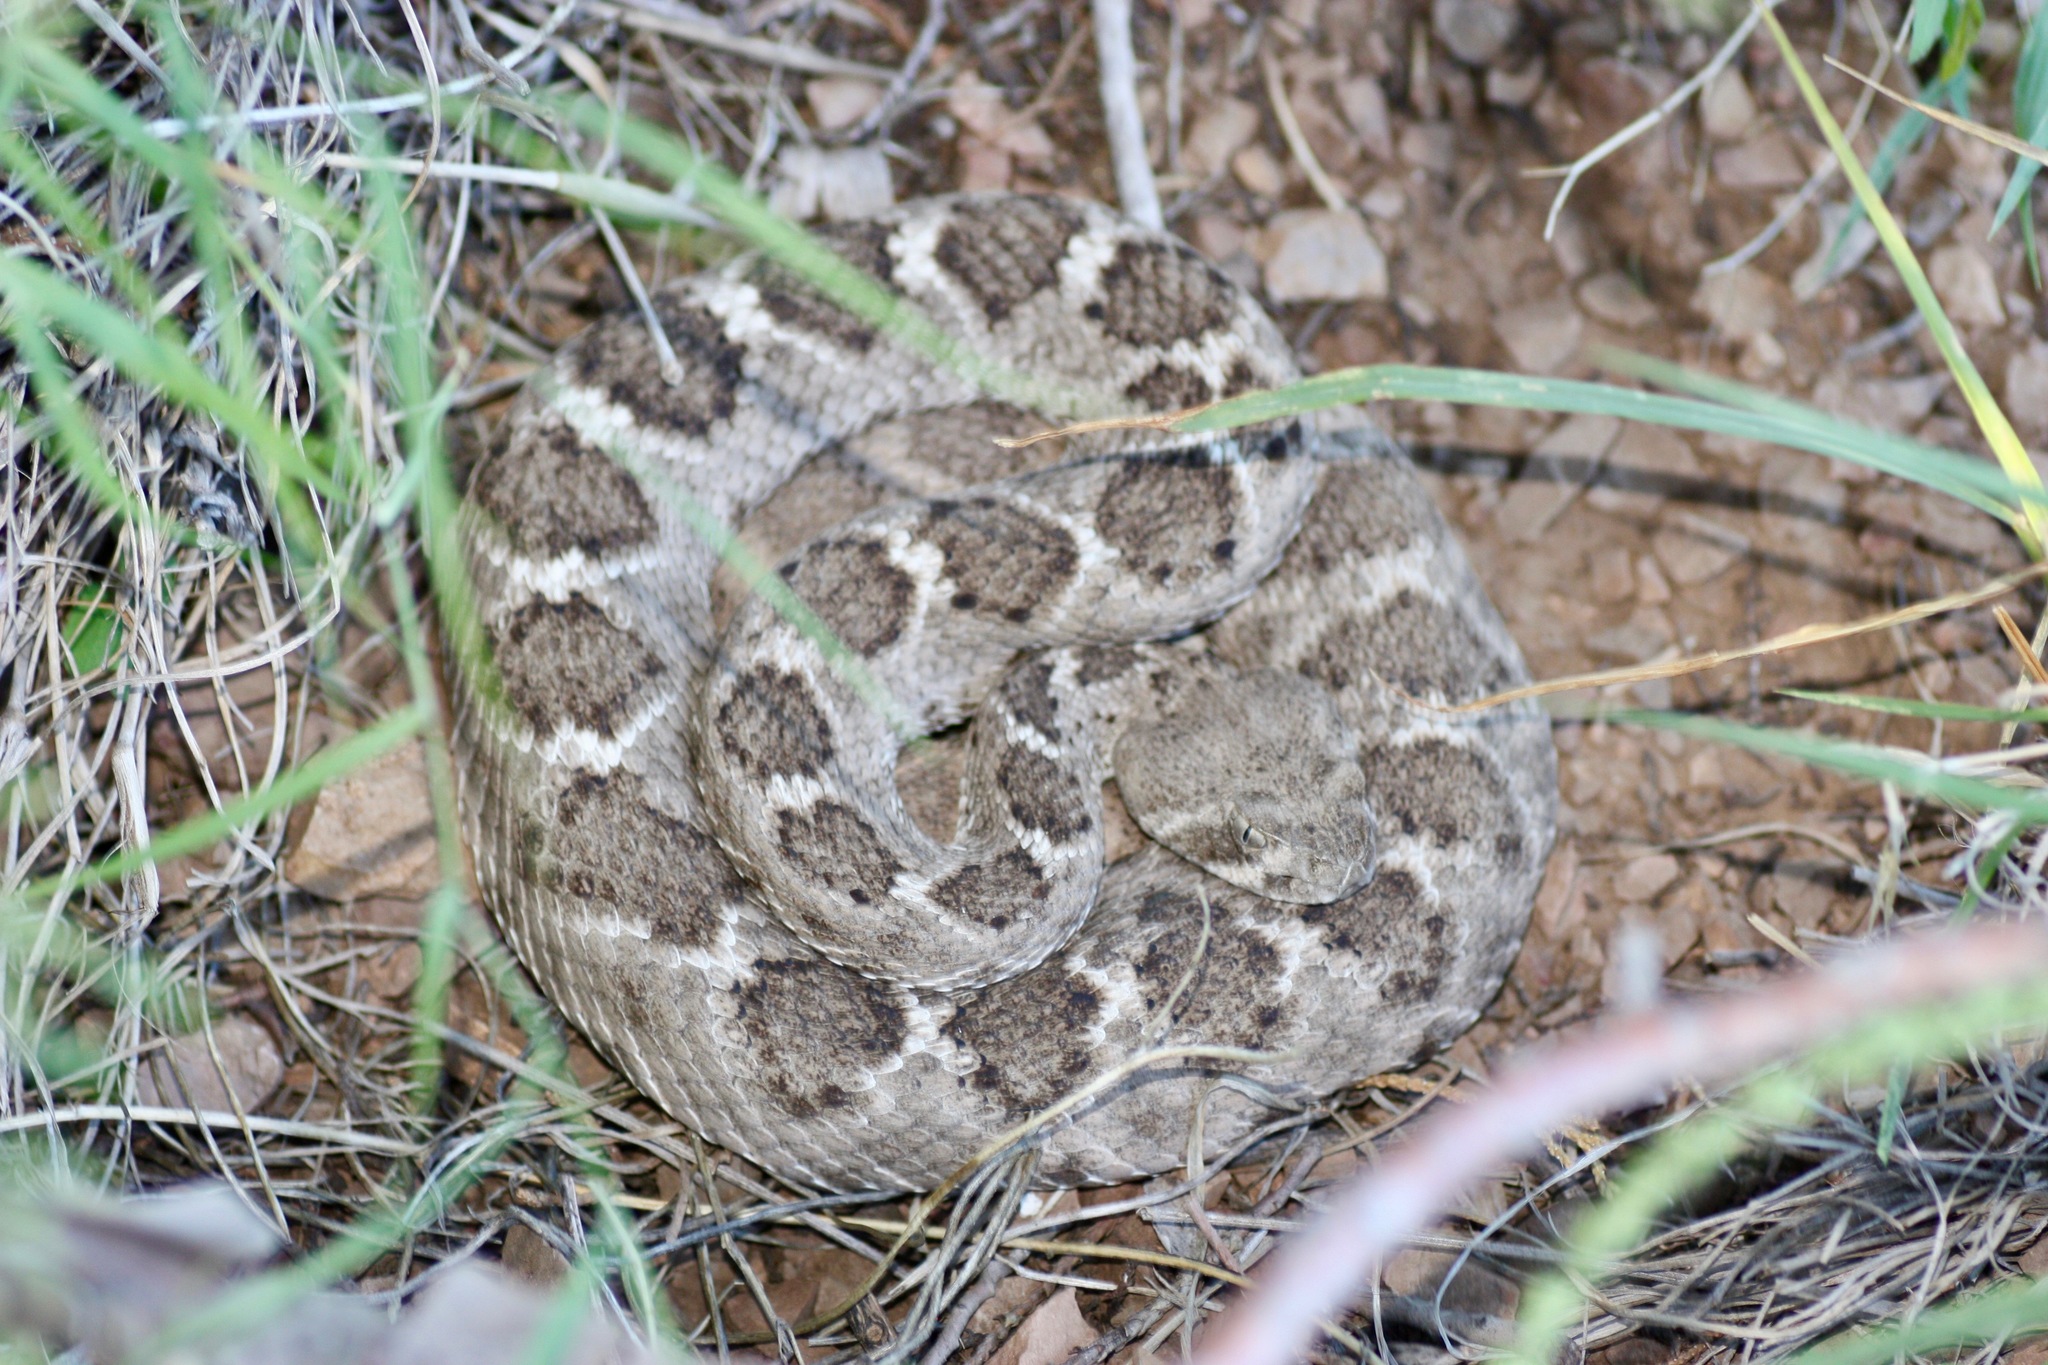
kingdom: Animalia
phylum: Chordata
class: Squamata
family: Viperidae
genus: Crotalus
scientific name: Crotalus atrox
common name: Western diamond-backed rattlesnake
